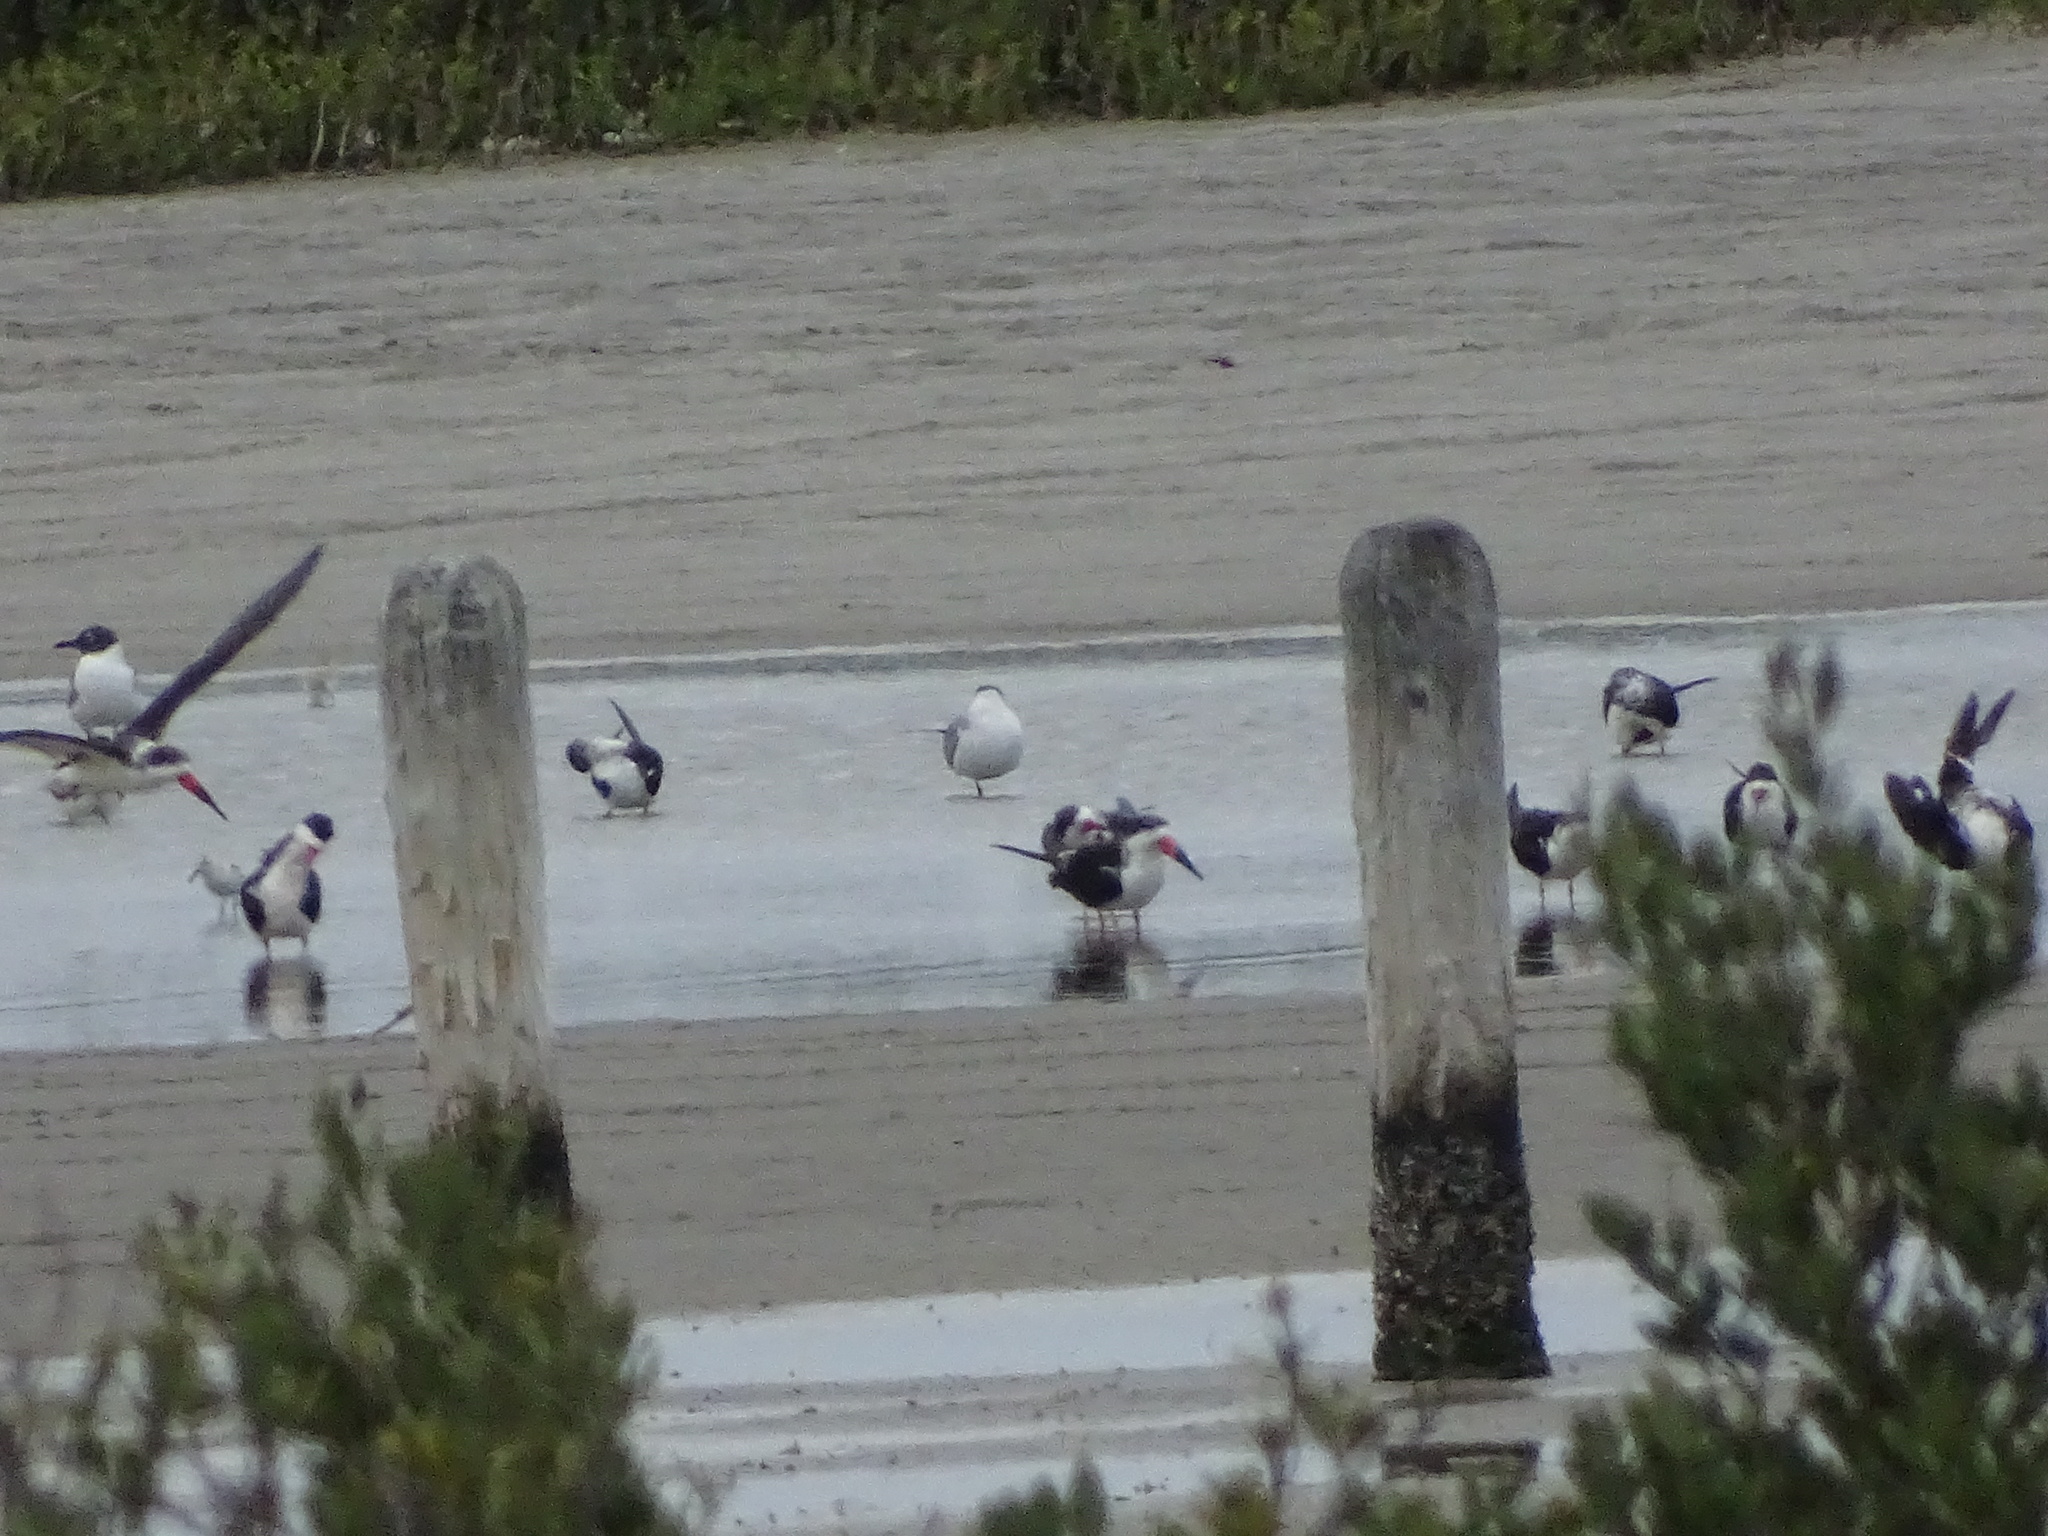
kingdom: Animalia
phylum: Chordata
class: Aves
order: Charadriiformes
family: Laridae
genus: Rynchops
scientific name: Rynchops niger
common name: Black skimmer
